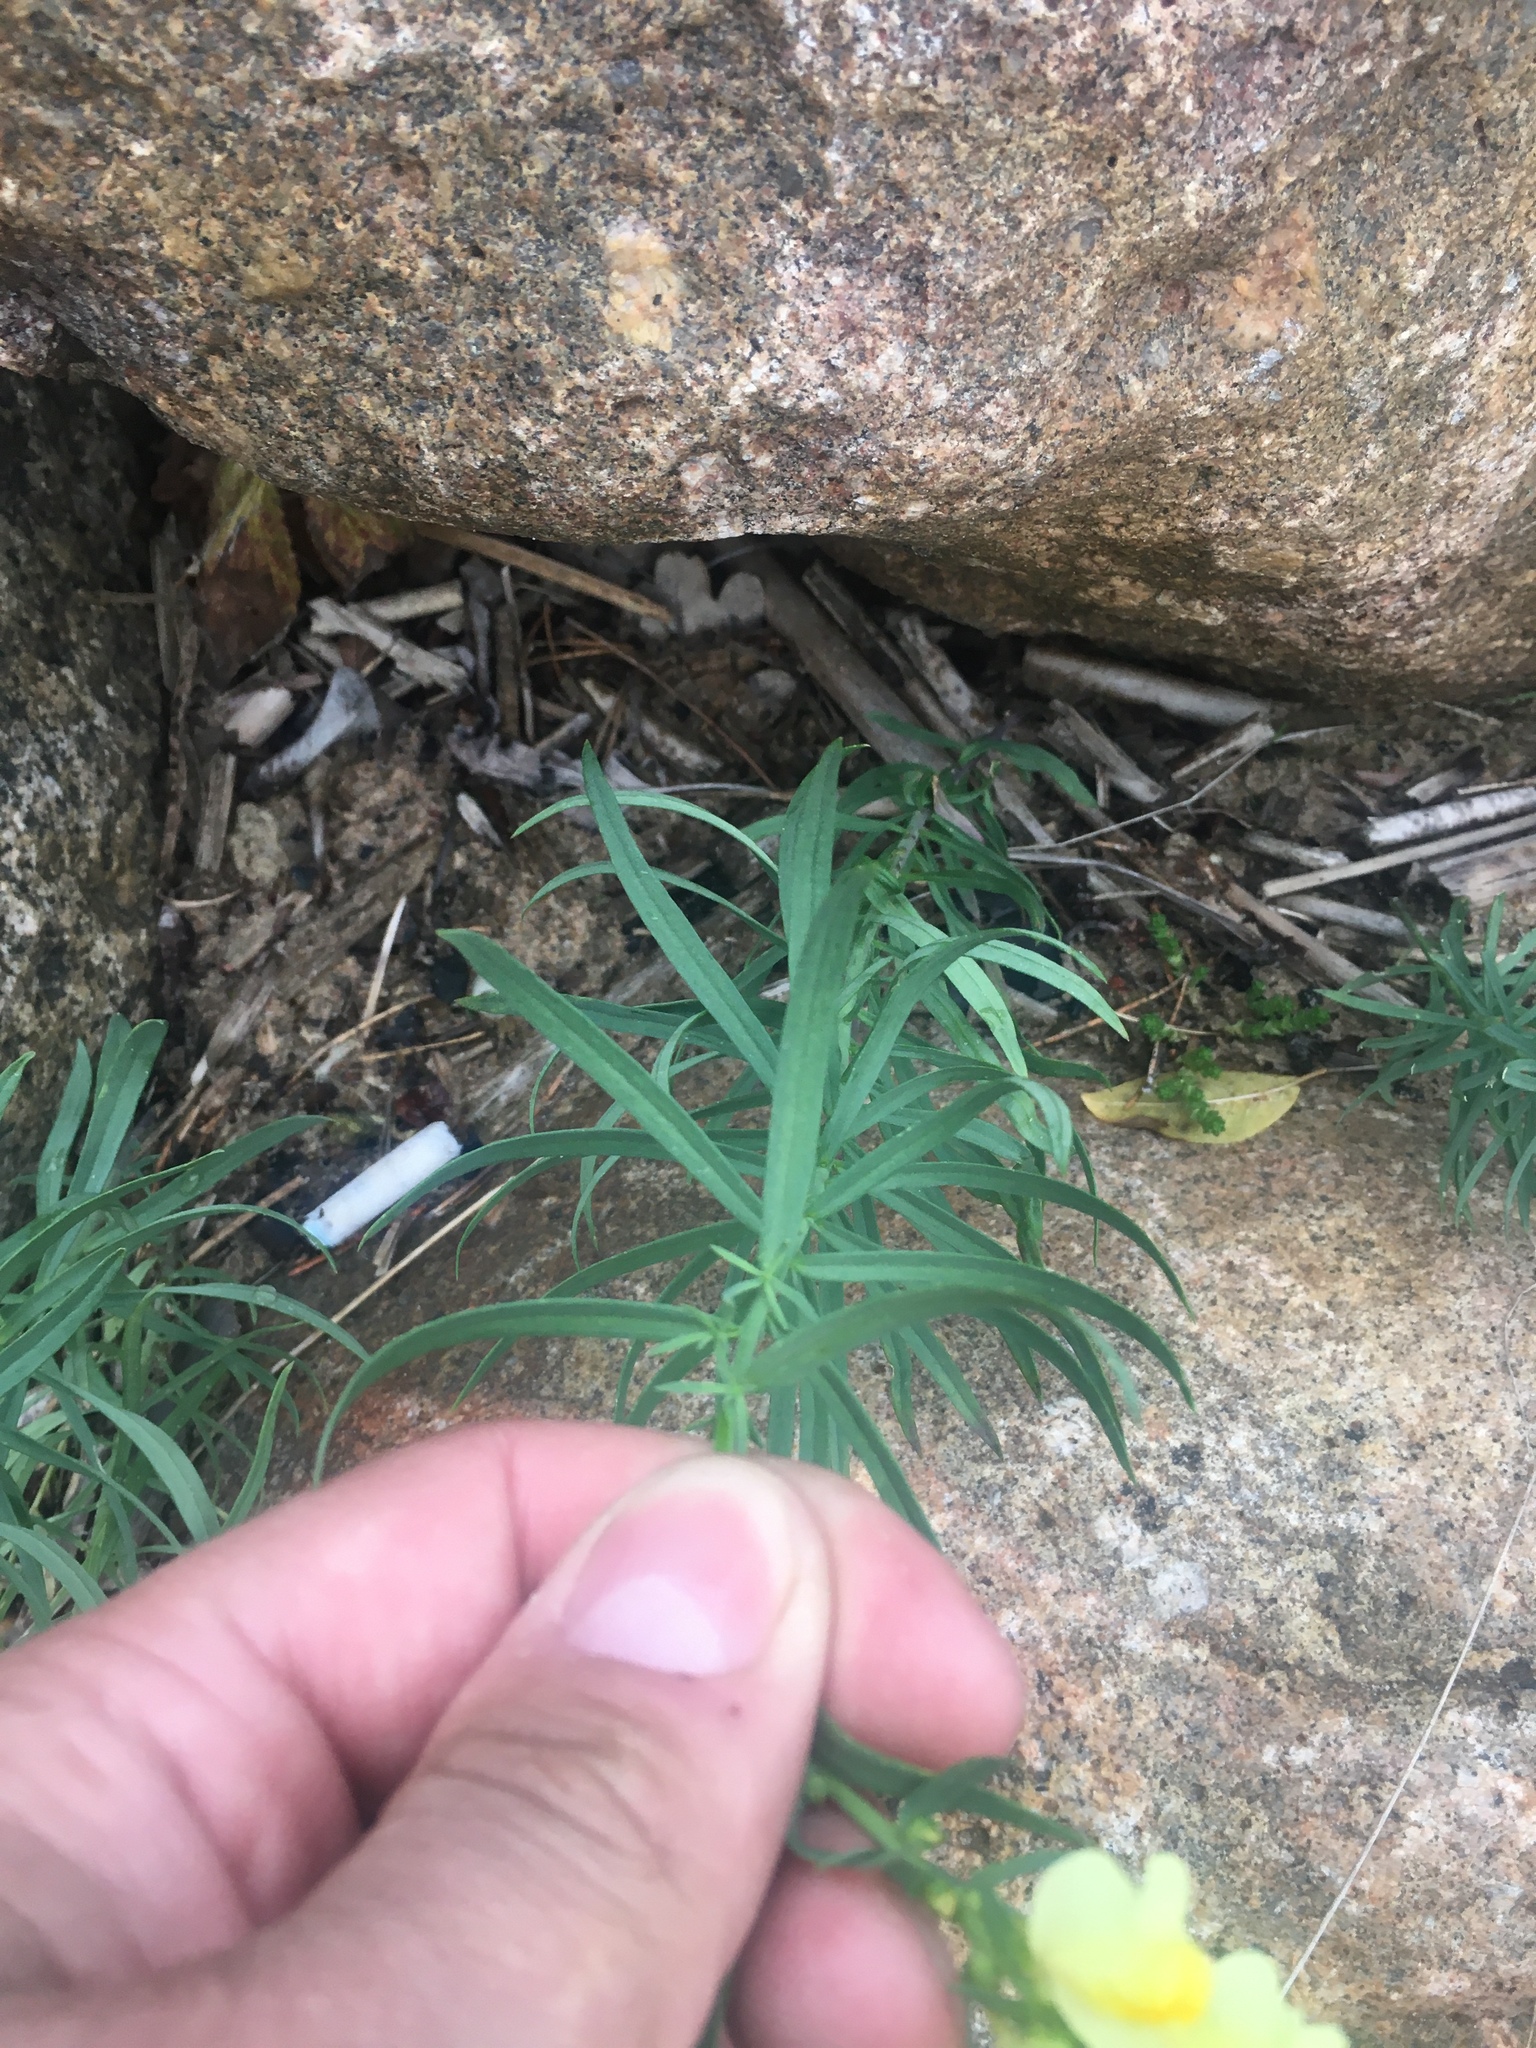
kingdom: Plantae
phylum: Tracheophyta
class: Magnoliopsida
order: Lamiales
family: Plantaginaceae
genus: Linaria
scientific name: Linaria vulgaris
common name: Butter and eggs
